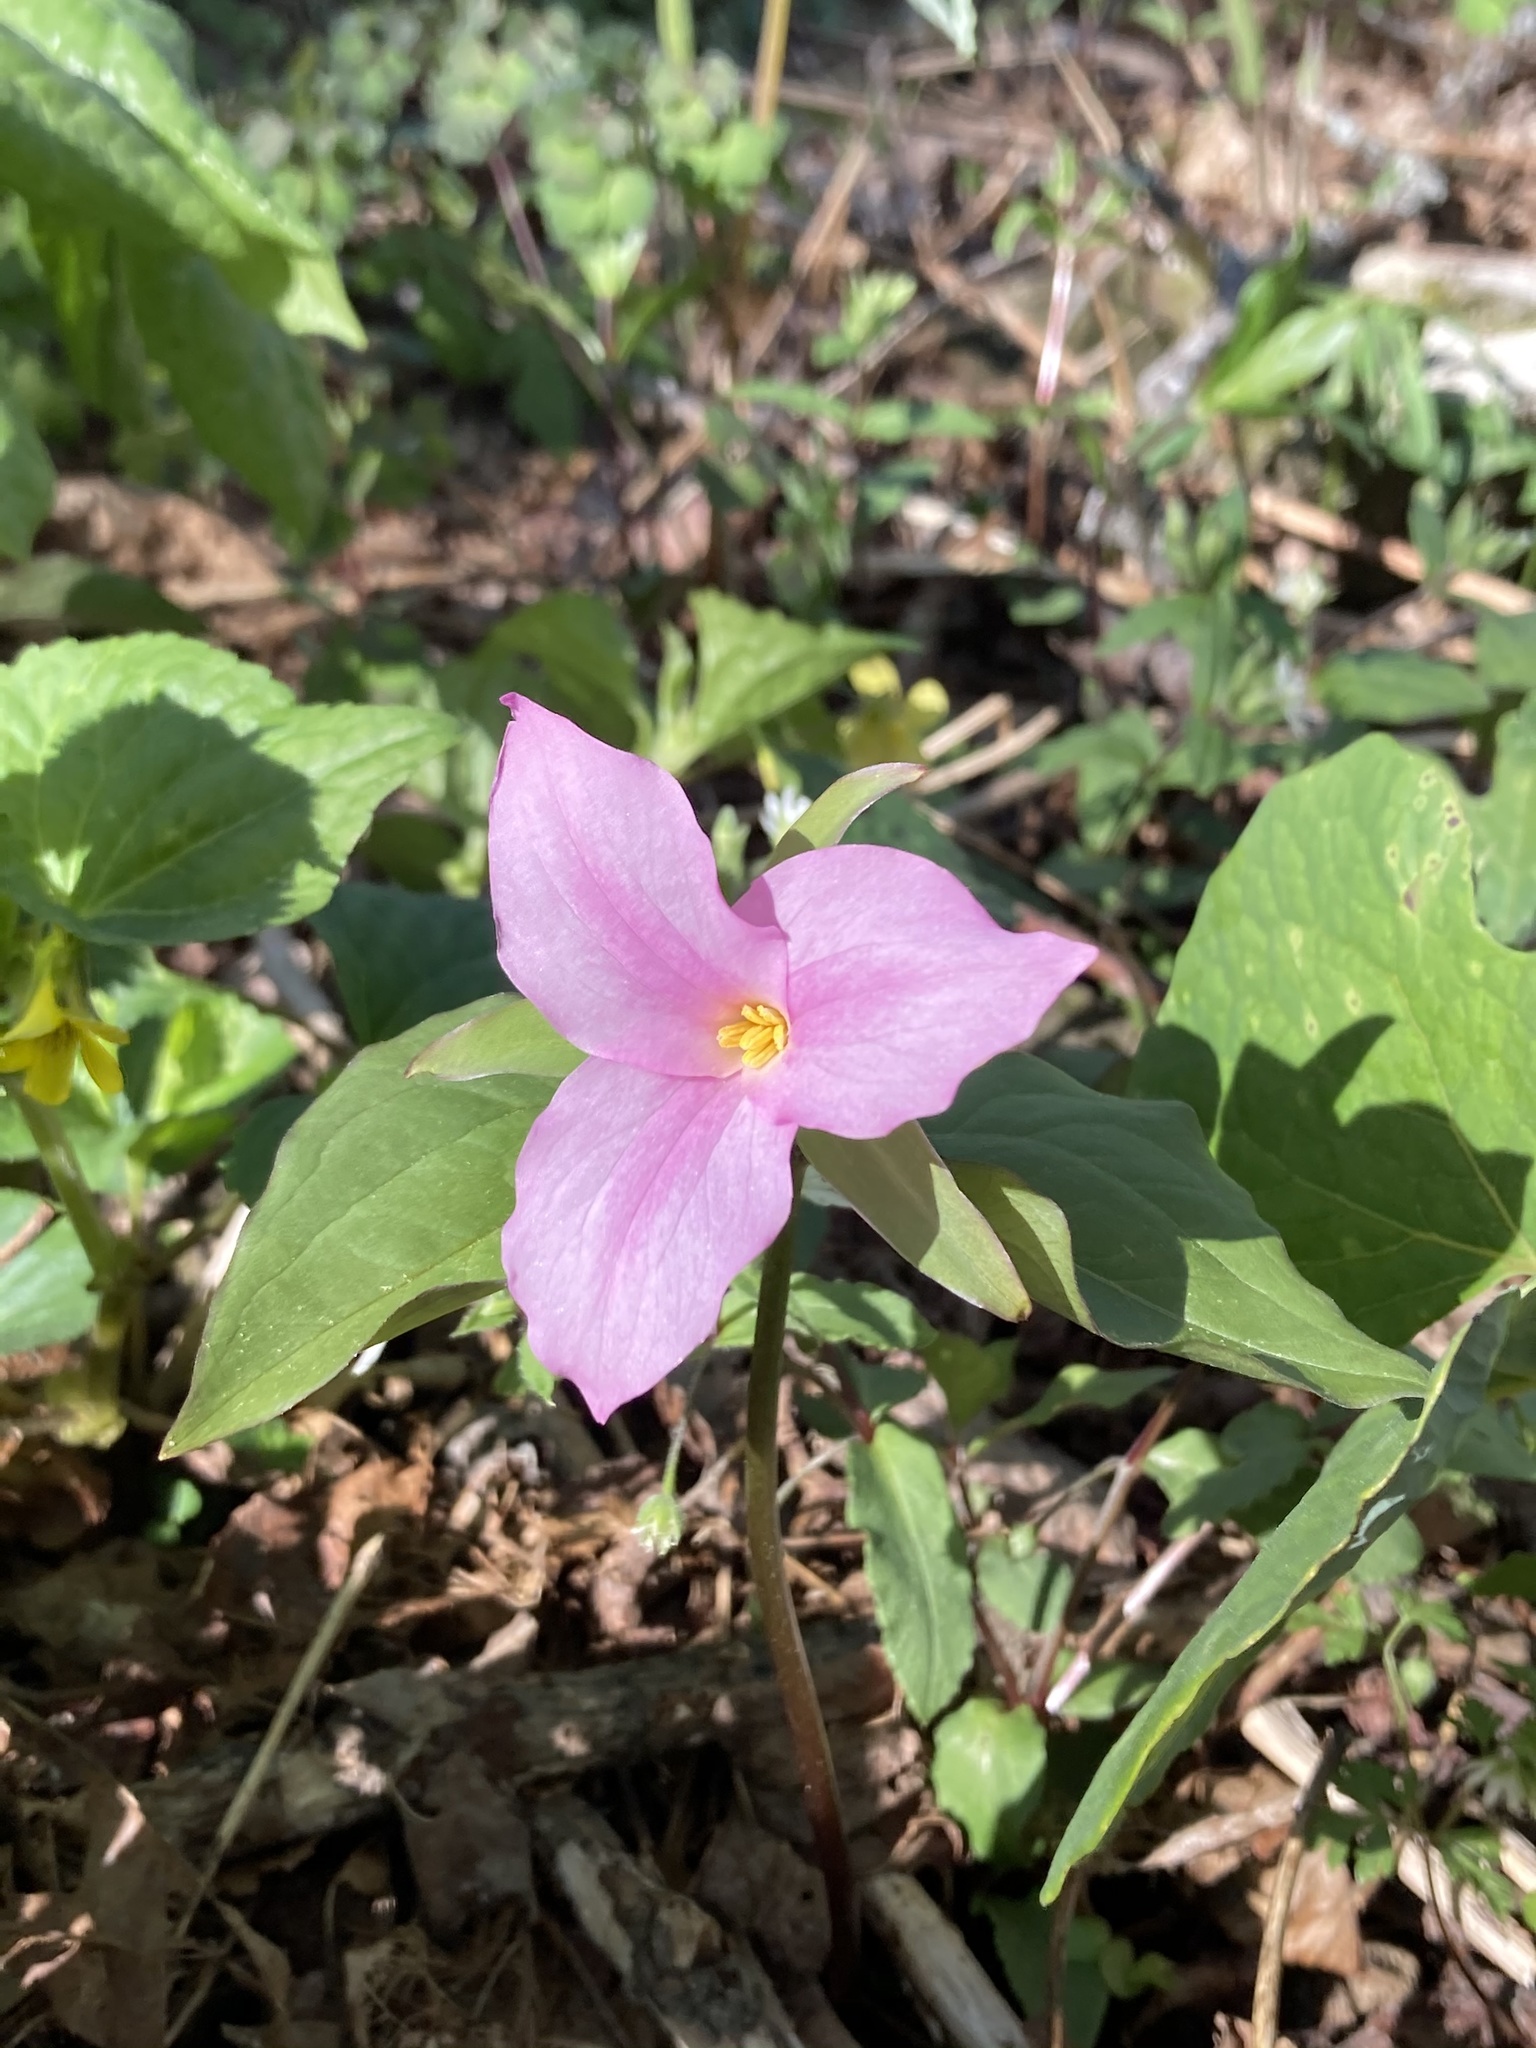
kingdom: Plantae
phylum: Tracheophyta
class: Liliopsida
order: Liliales
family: Melanthiaceae
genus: Trillium
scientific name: Trillium grandiflorum
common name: Great white trillium
